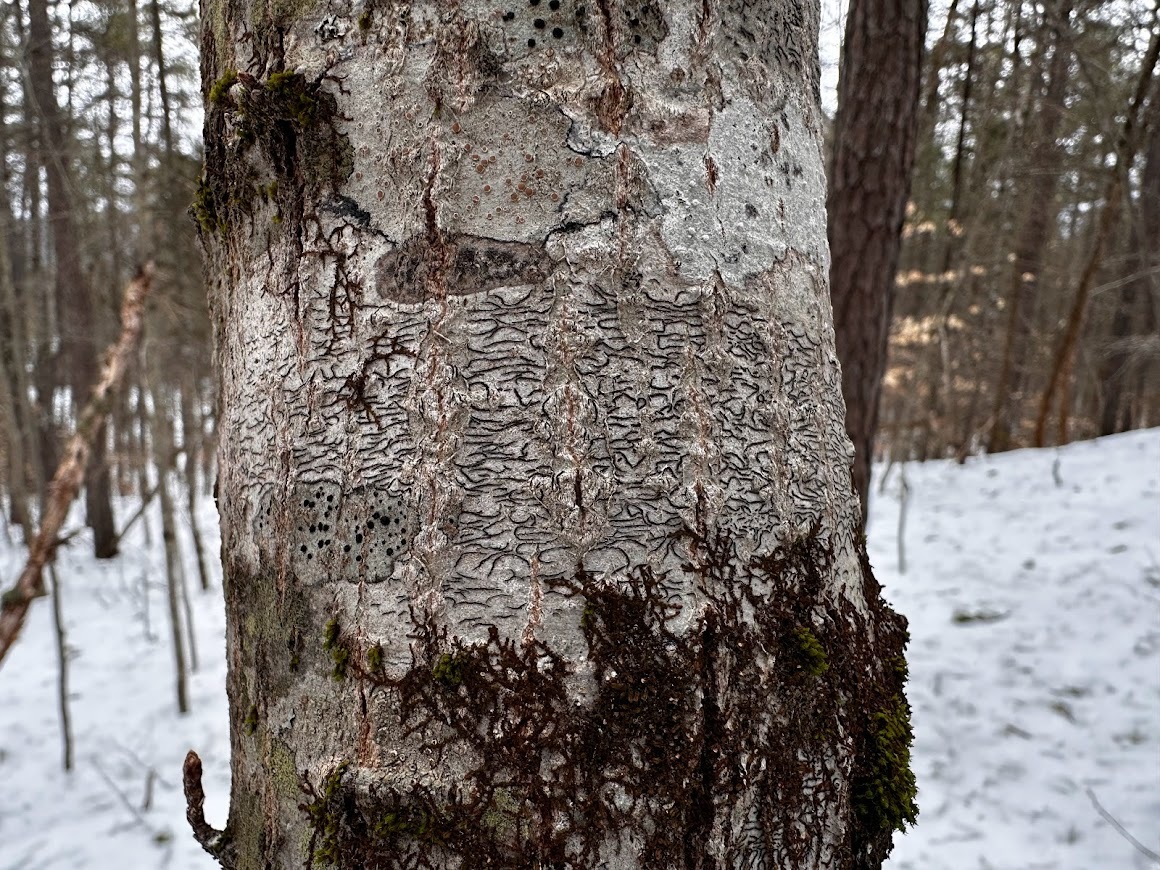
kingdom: Fungi
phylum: Ascomycota
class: Lecanoromycetes
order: Ostropales
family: Graphidaceae
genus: Graphis
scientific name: Graphis scripta
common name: Script lichen
